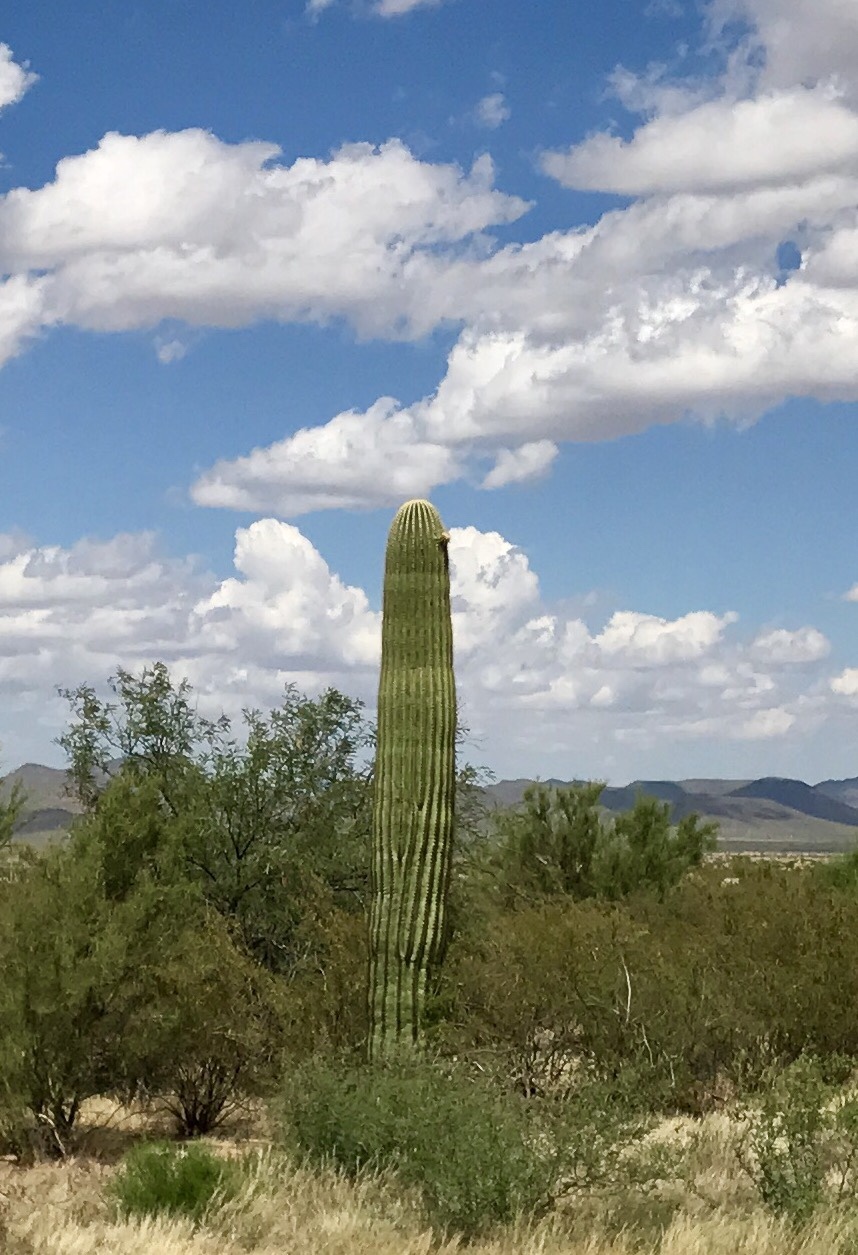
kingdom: Plantae
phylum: Tracheophyta
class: Magnoliopsida
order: Caryophyllales
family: Cactaceae
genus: Carnegiea
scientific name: Carnegiea gigantea
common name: Saguaro
